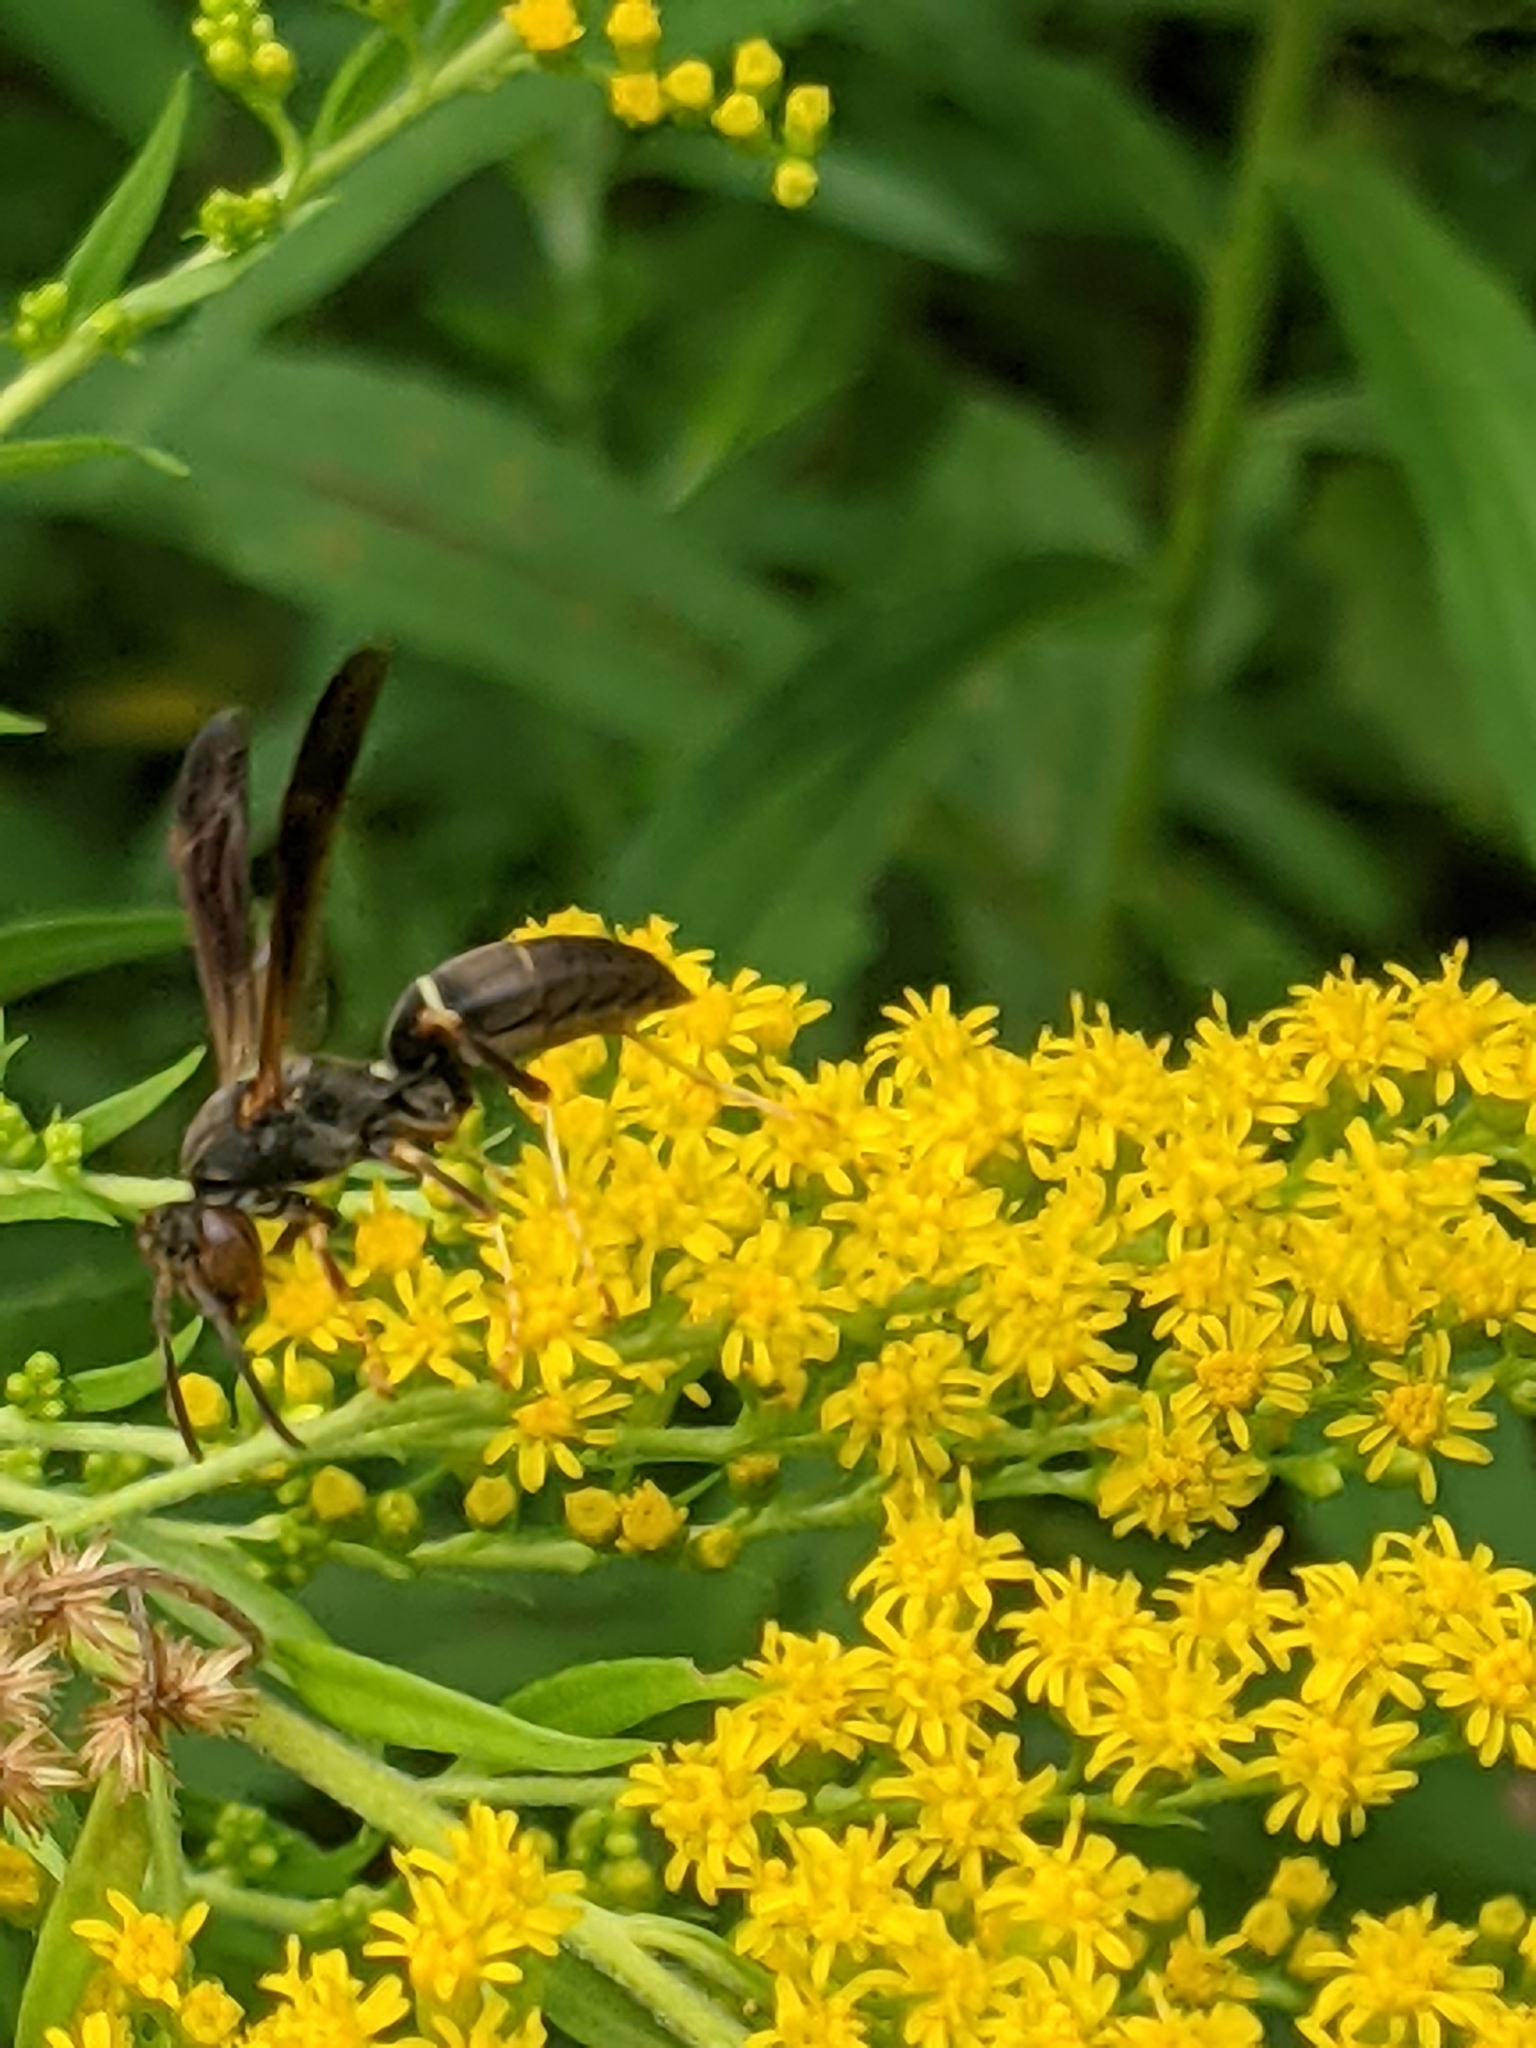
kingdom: Animalia
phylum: Arthropoda
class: Insecta
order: Hymenoptera
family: Eumenidae
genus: Polistes
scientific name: Polistes fuscatus
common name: Dark paper wasp
